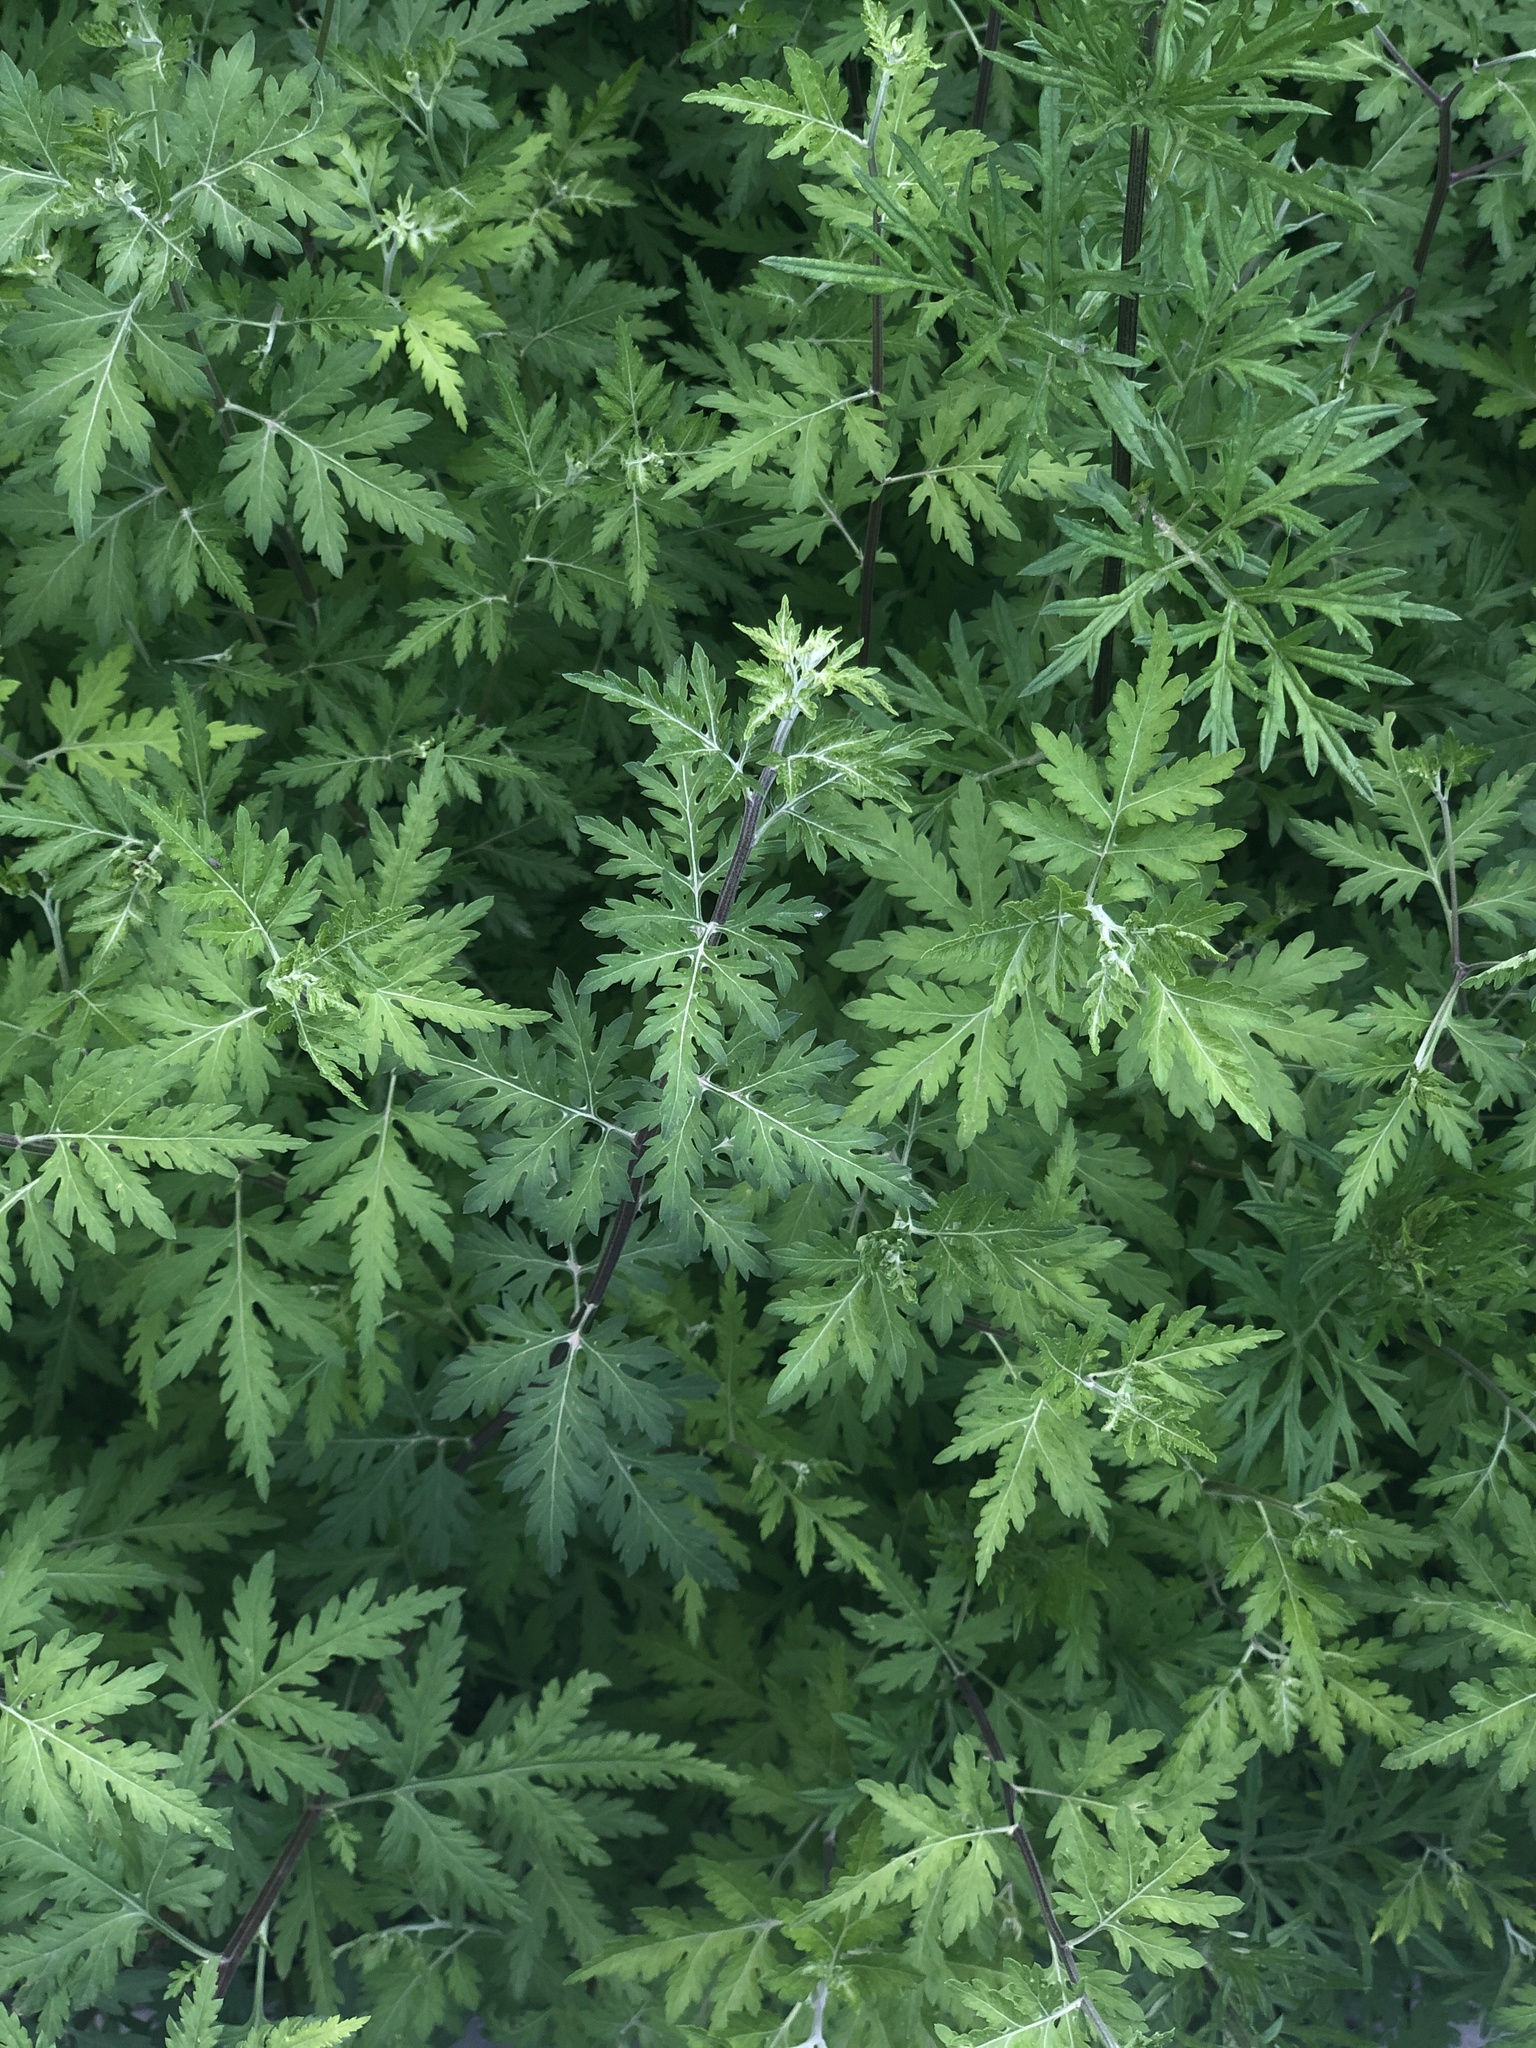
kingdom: Plantae
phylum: Tracheophyta
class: Magnoliopsida
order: Asterales
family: Asteraceae
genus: Artemisia
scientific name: Artemisia annua
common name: Sweet sagewort
